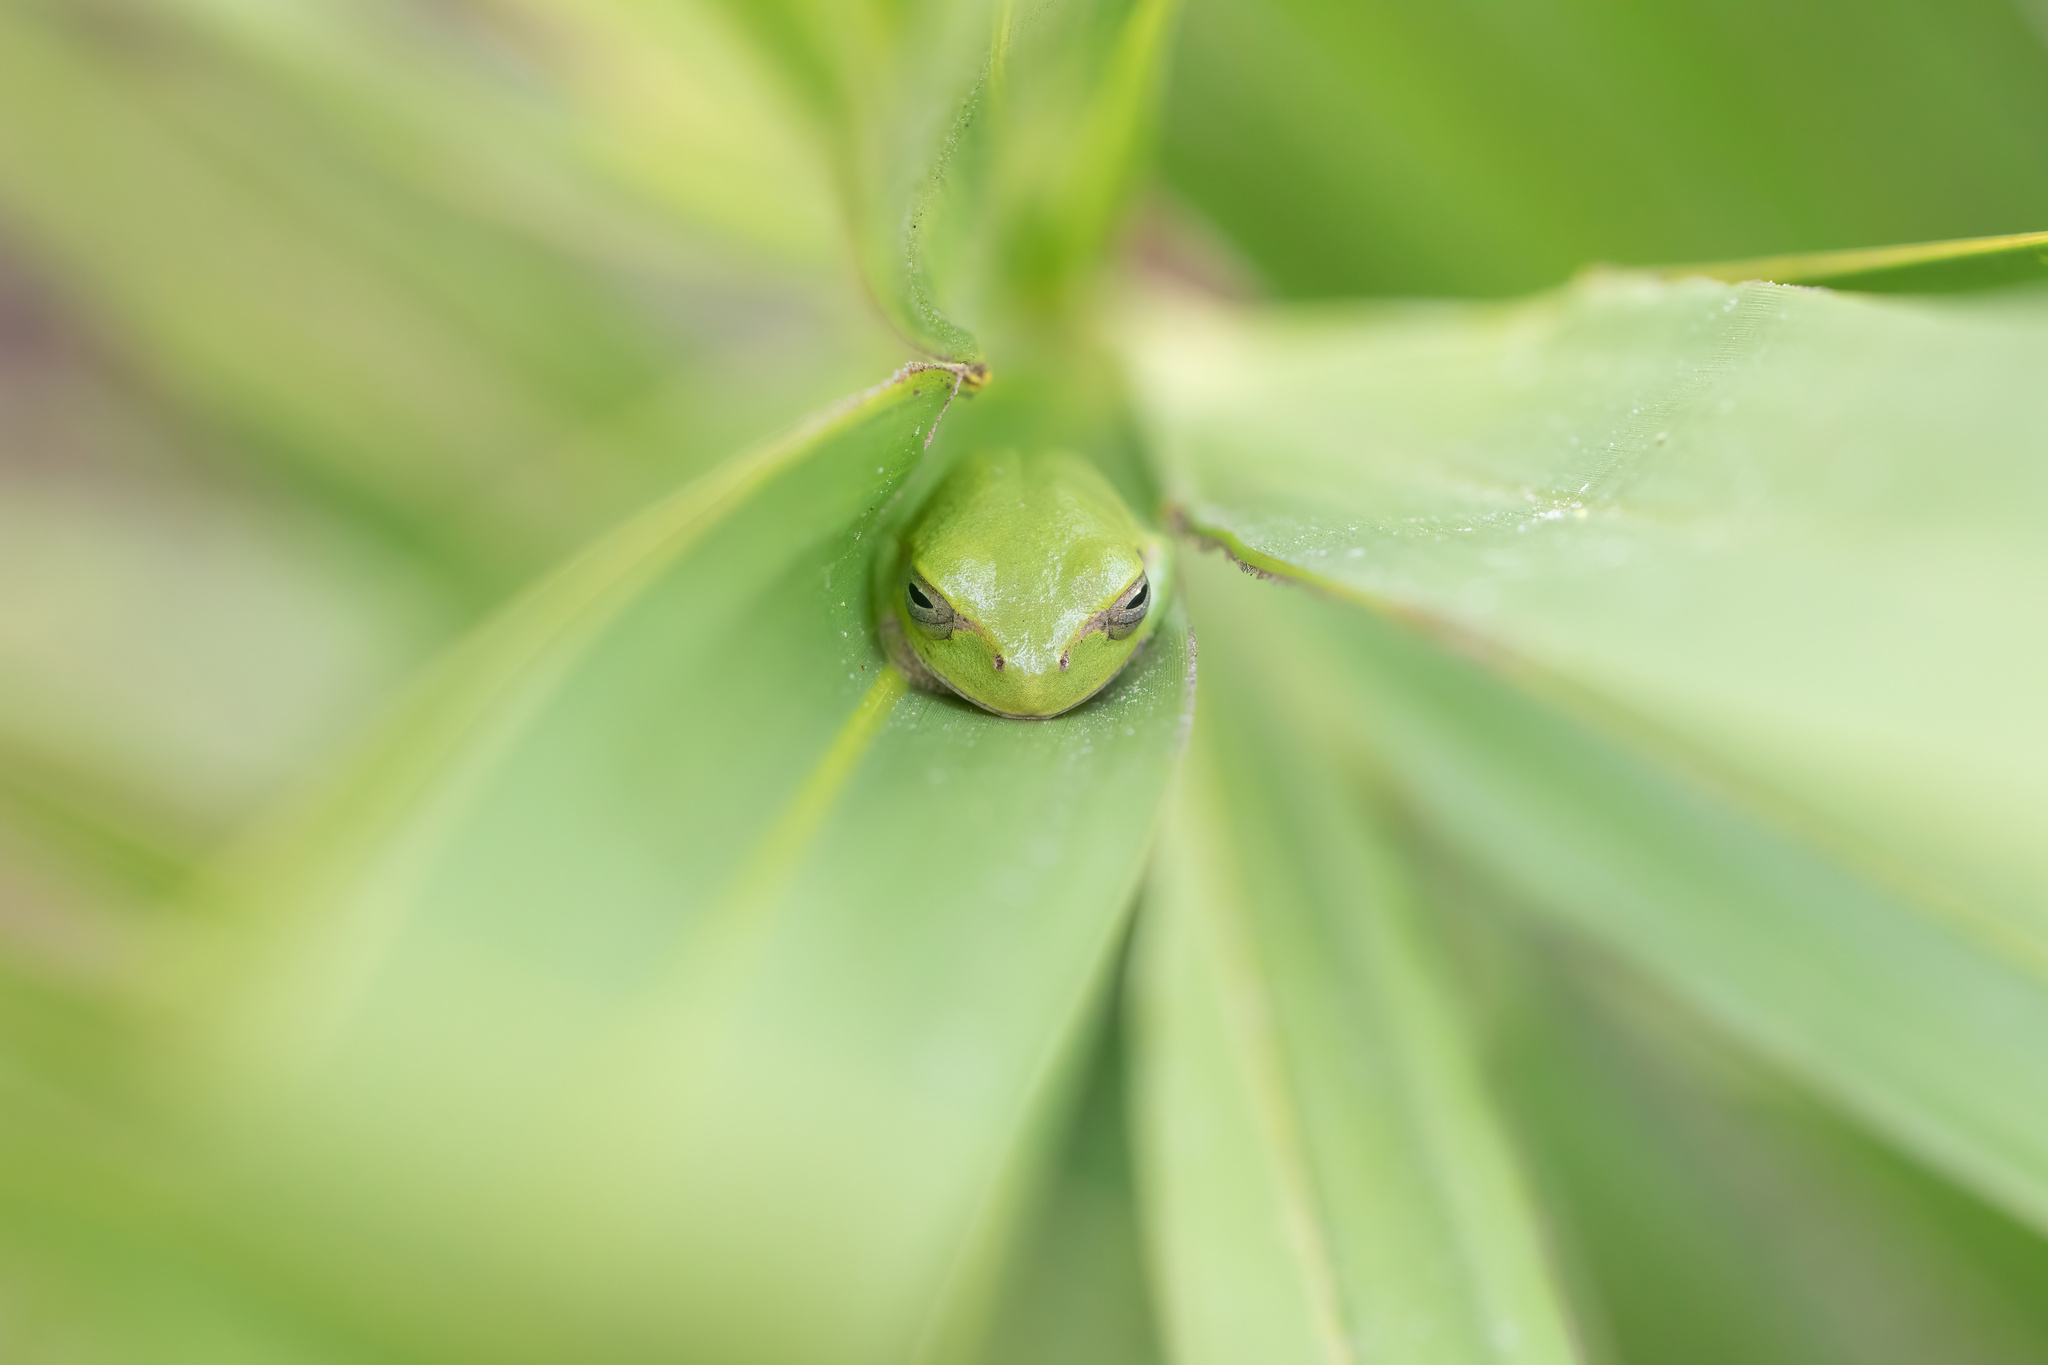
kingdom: Animalia
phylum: Chordata
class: Amphibia
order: Anura
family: Hylidae
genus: Hyla
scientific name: Hyla femoralis
